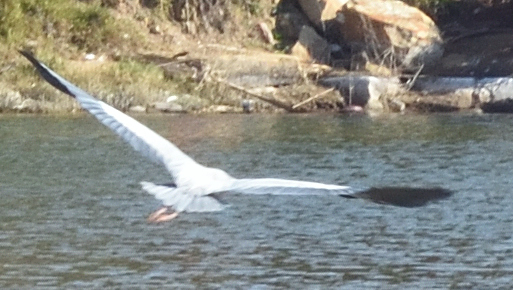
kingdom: Animalia
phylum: Chordata
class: Aves
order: Pelecaniformes
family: Ardeidae
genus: Ardea
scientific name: Ardea cinerea
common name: Grey heron
